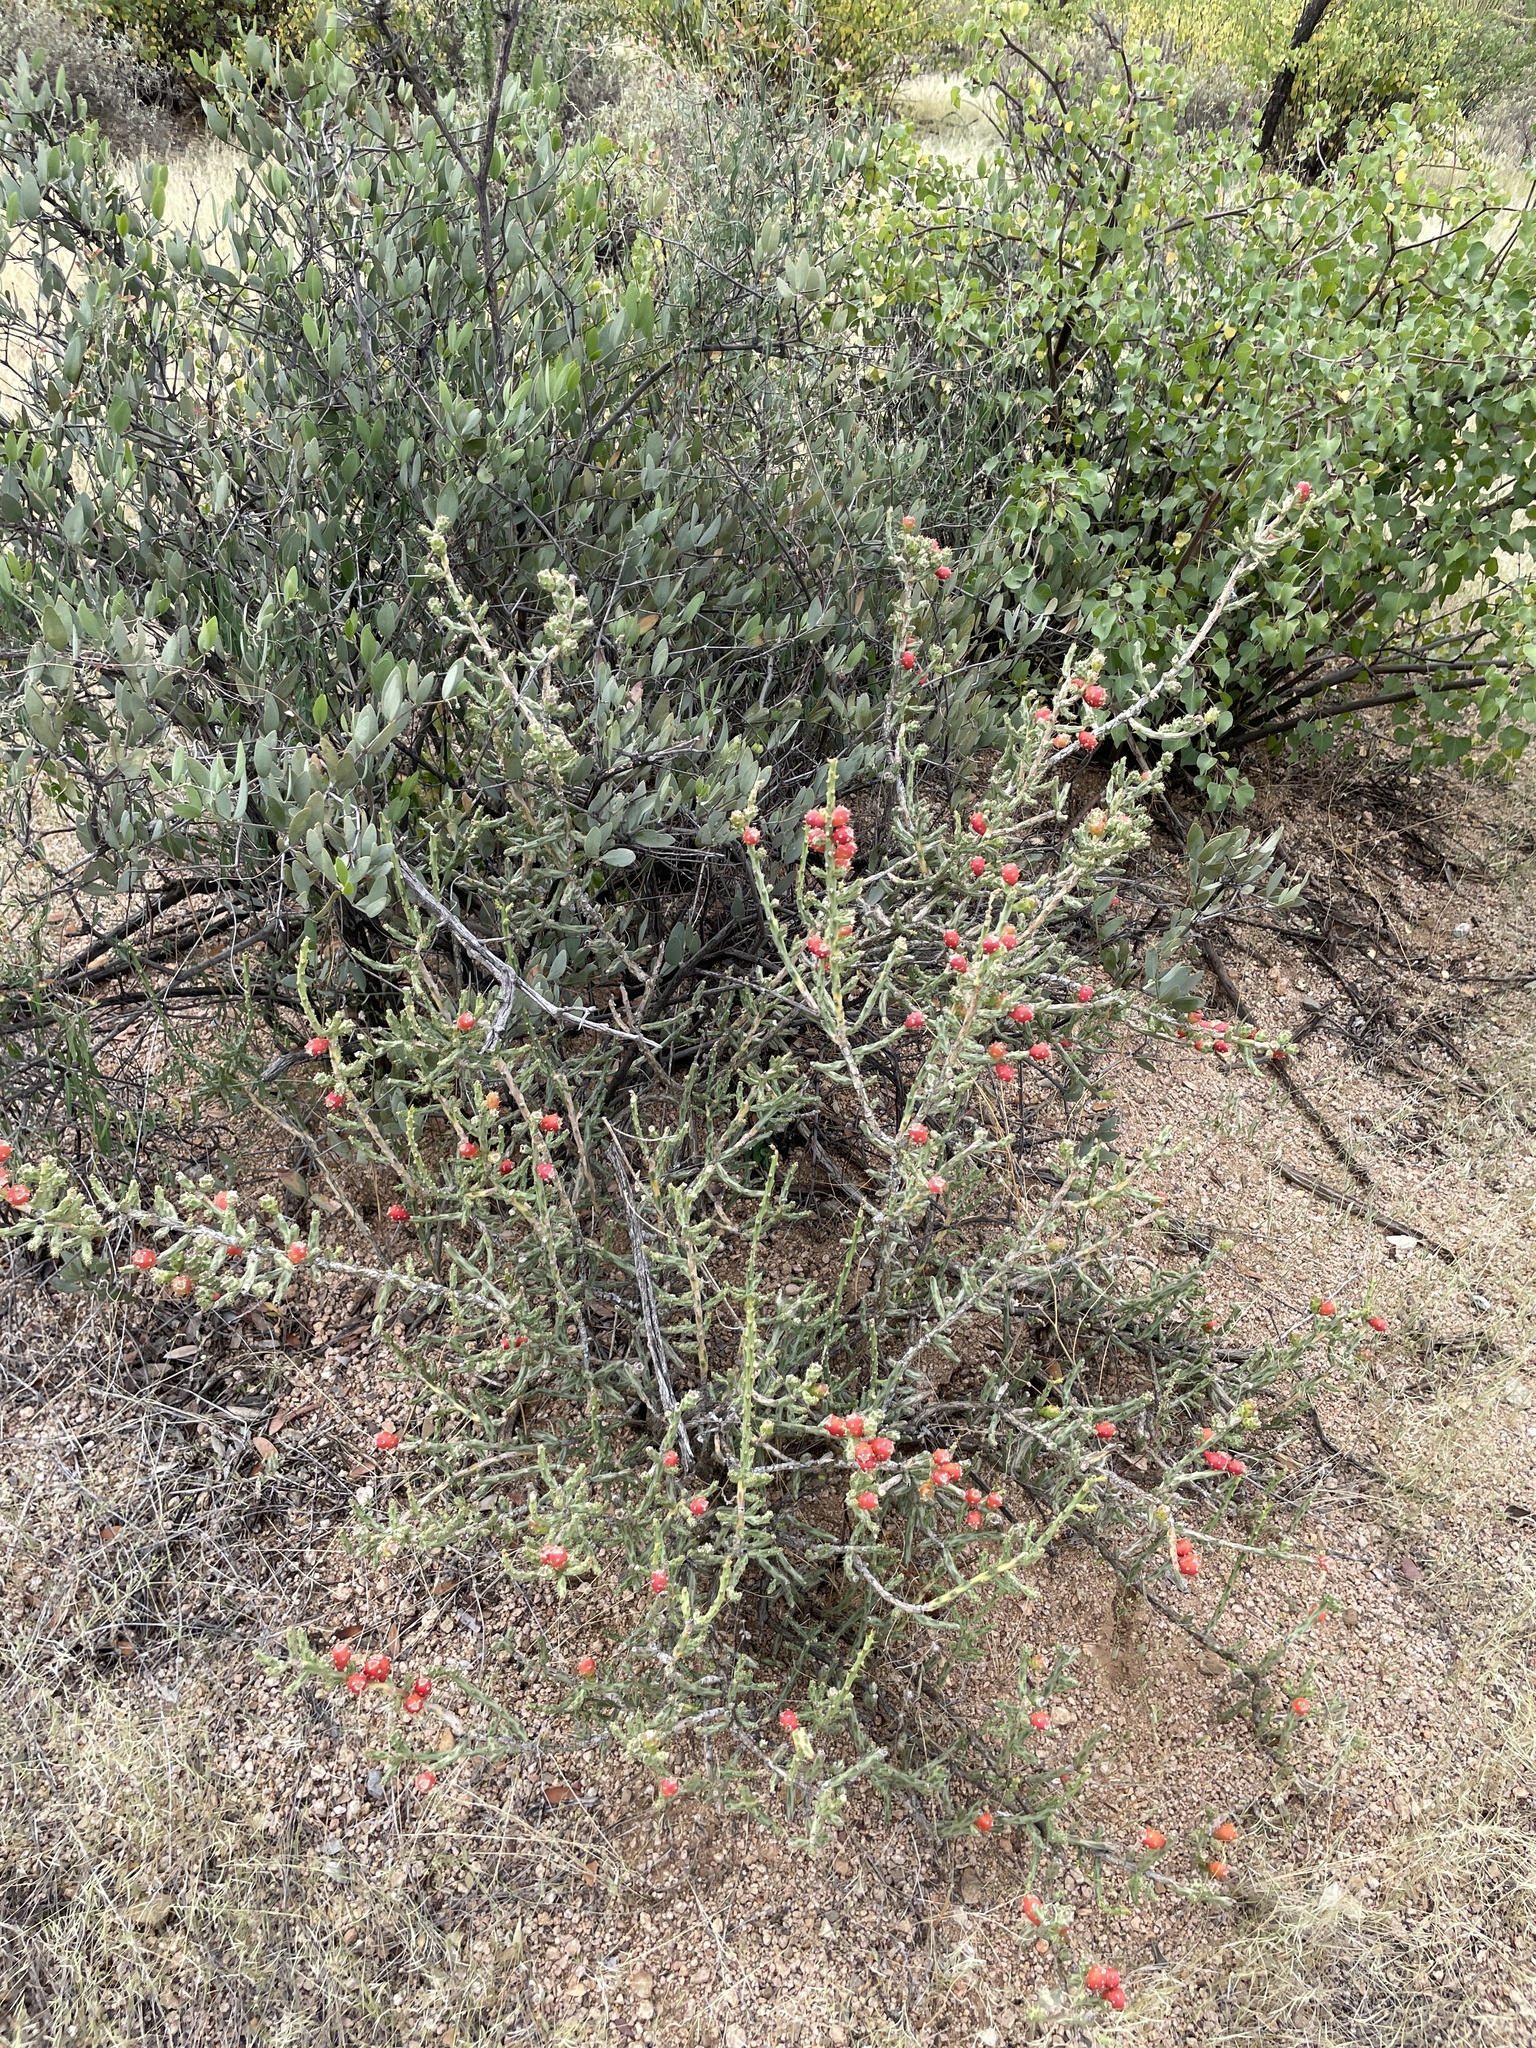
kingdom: Plantae
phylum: Tracheophyta
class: Magnoliopsida
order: Caryophyllales
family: Cactaceae
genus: Cylindropuntia
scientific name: Cylindropuntia leptocaulis
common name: Christmas cactus
